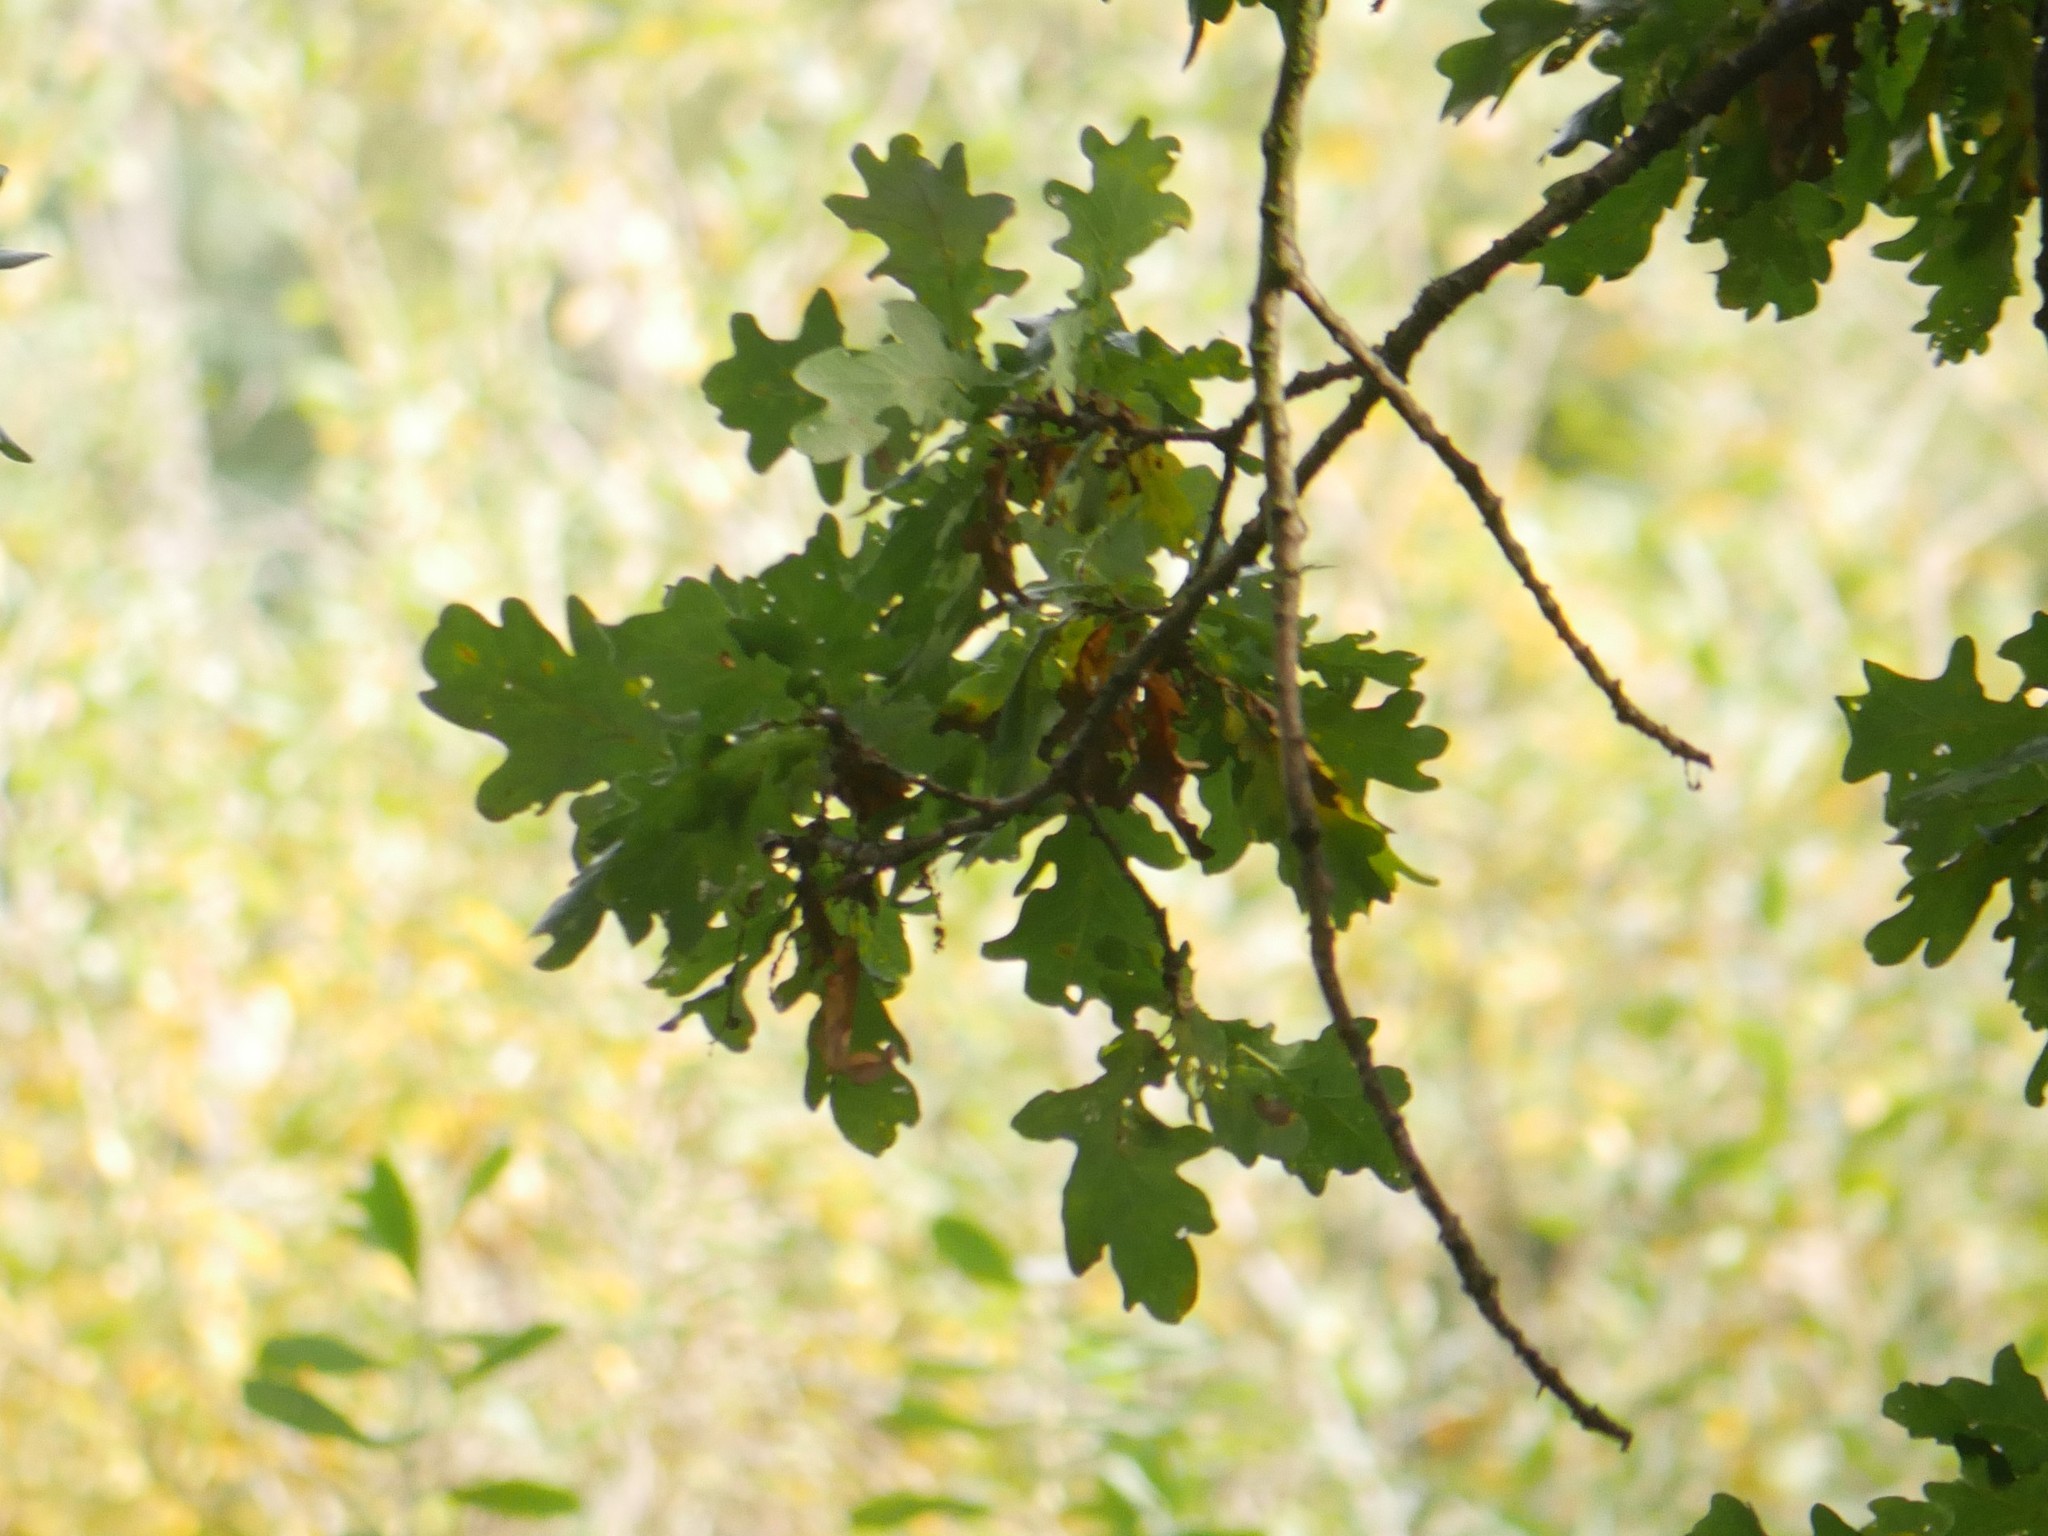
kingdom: Plantae
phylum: Tracheophyta
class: Magnoliopsida
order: Fagales
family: Fagaceae
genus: Quercus
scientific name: Quercus robur
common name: Pedunculate oak
